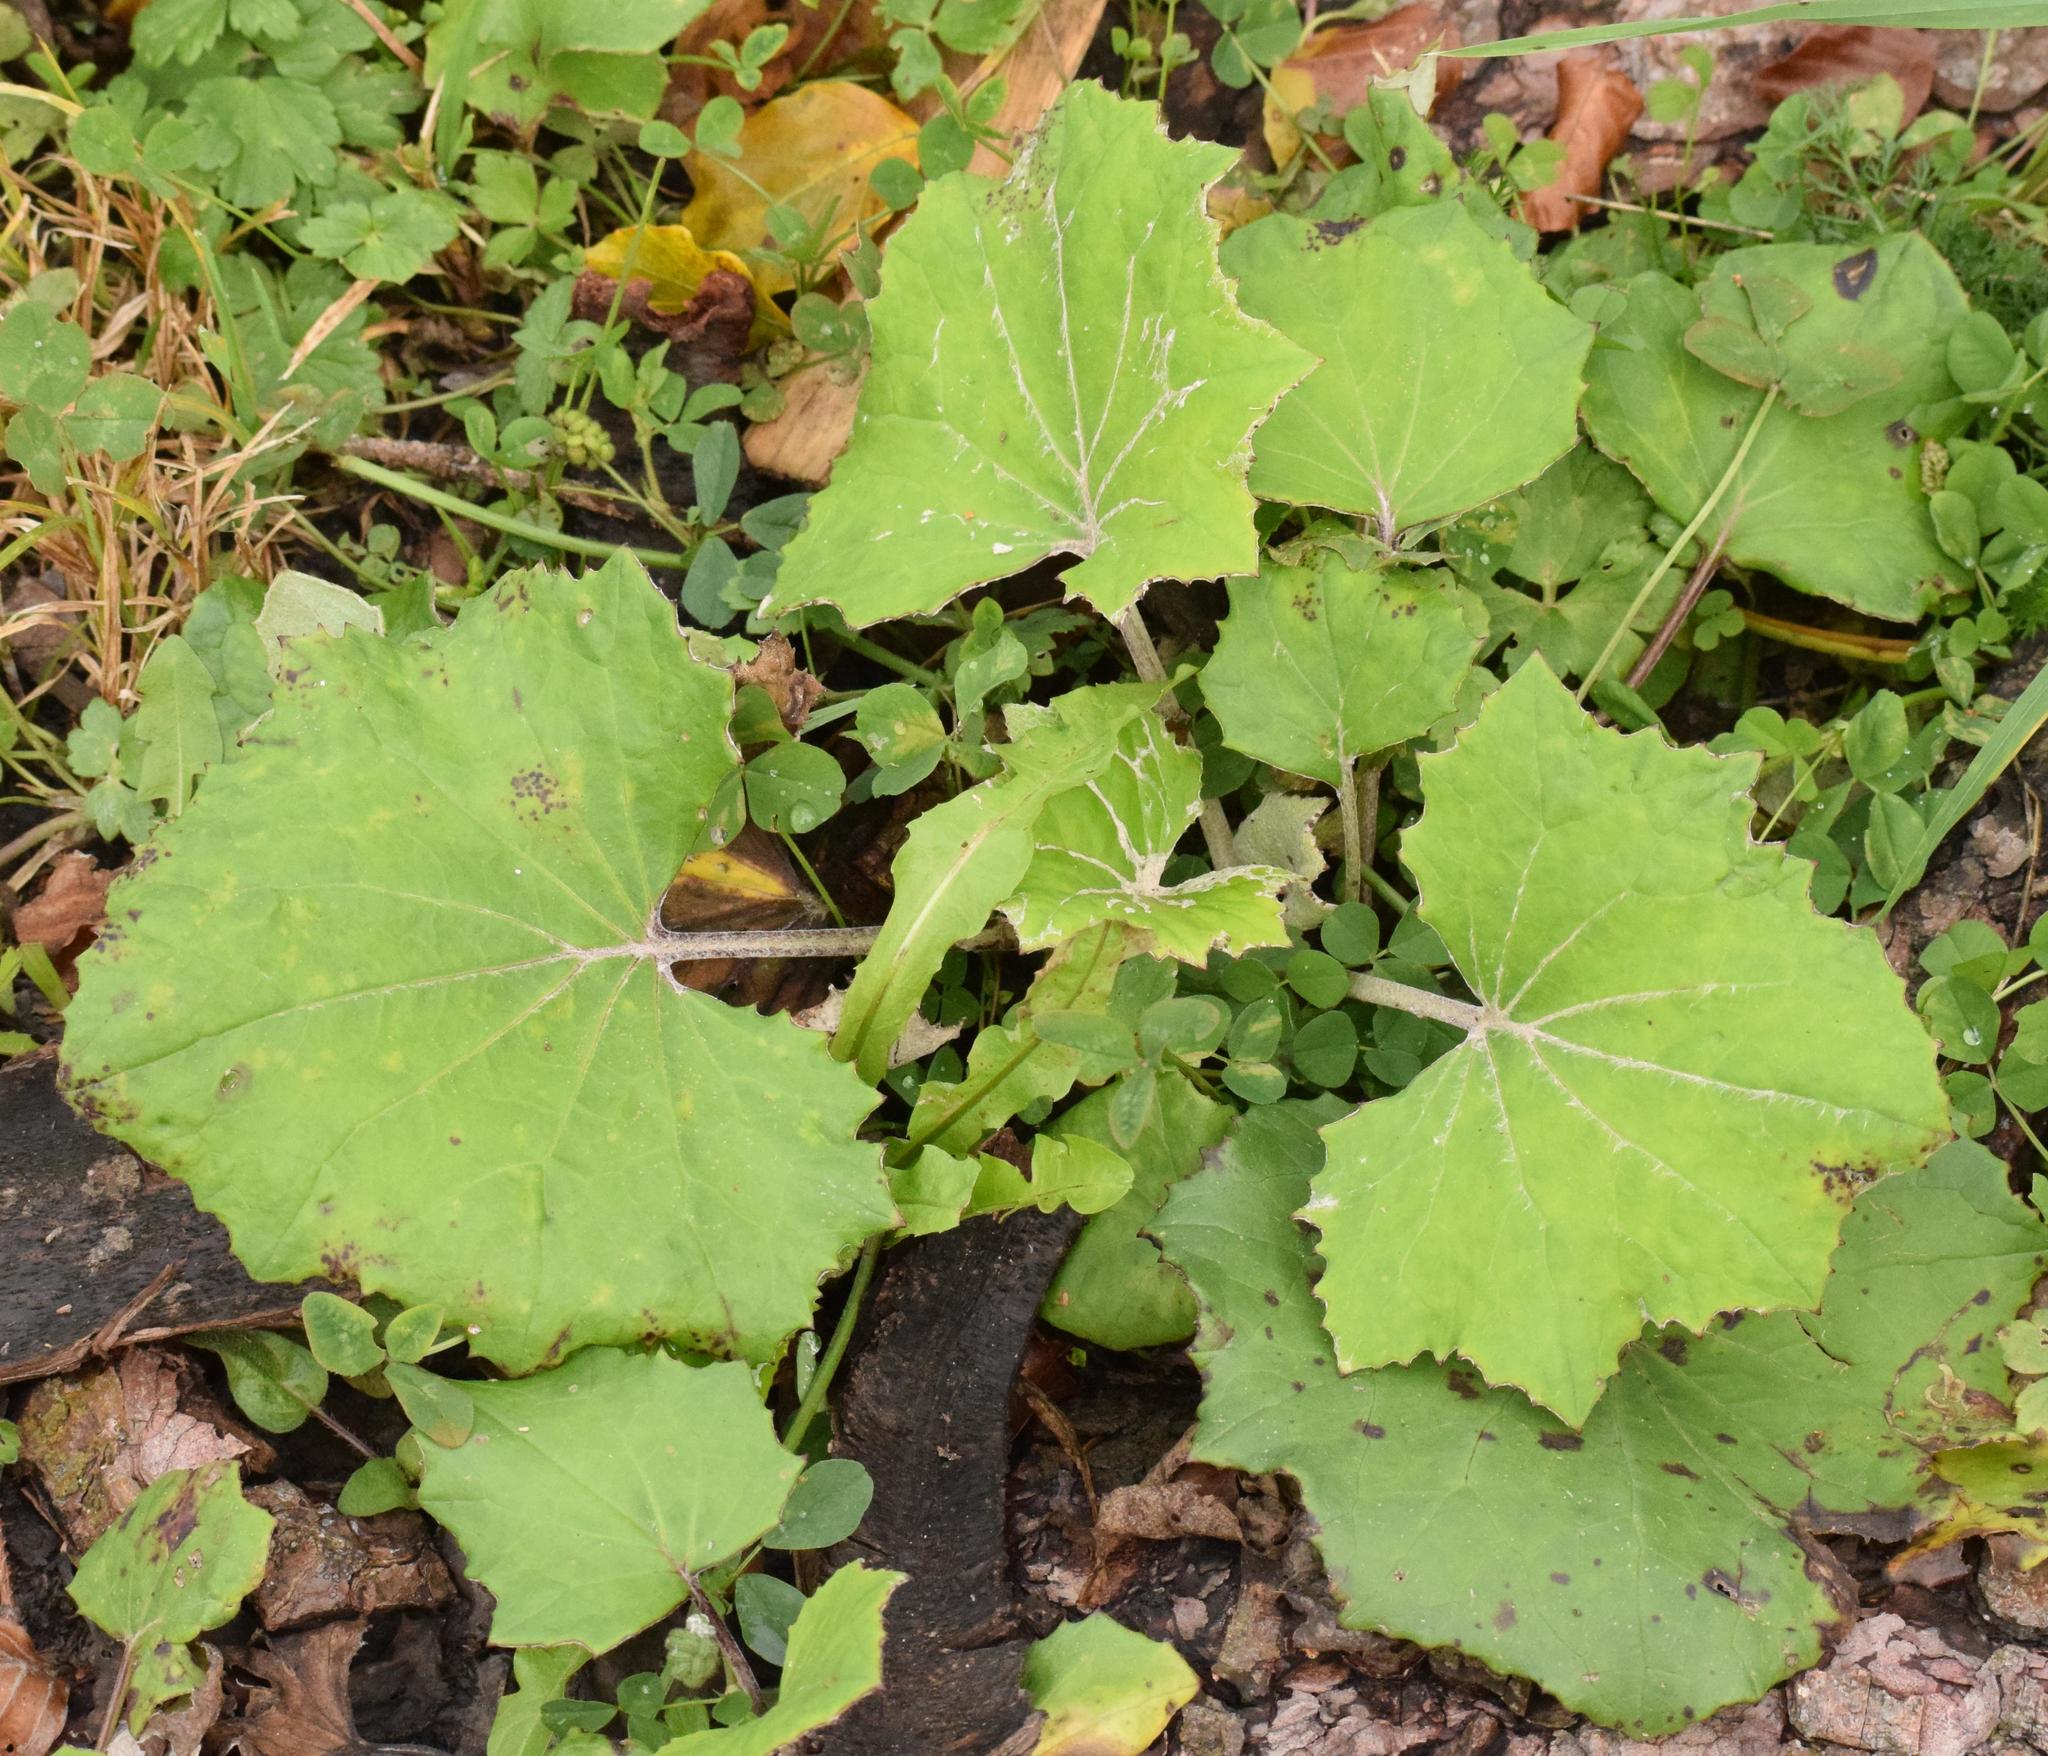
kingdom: Plantae
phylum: Tracheophyta
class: Magnoliopsida
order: Asterales
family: Asteraceae
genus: Tussilago
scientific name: Tussilago farfara
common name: Coltsfoot
